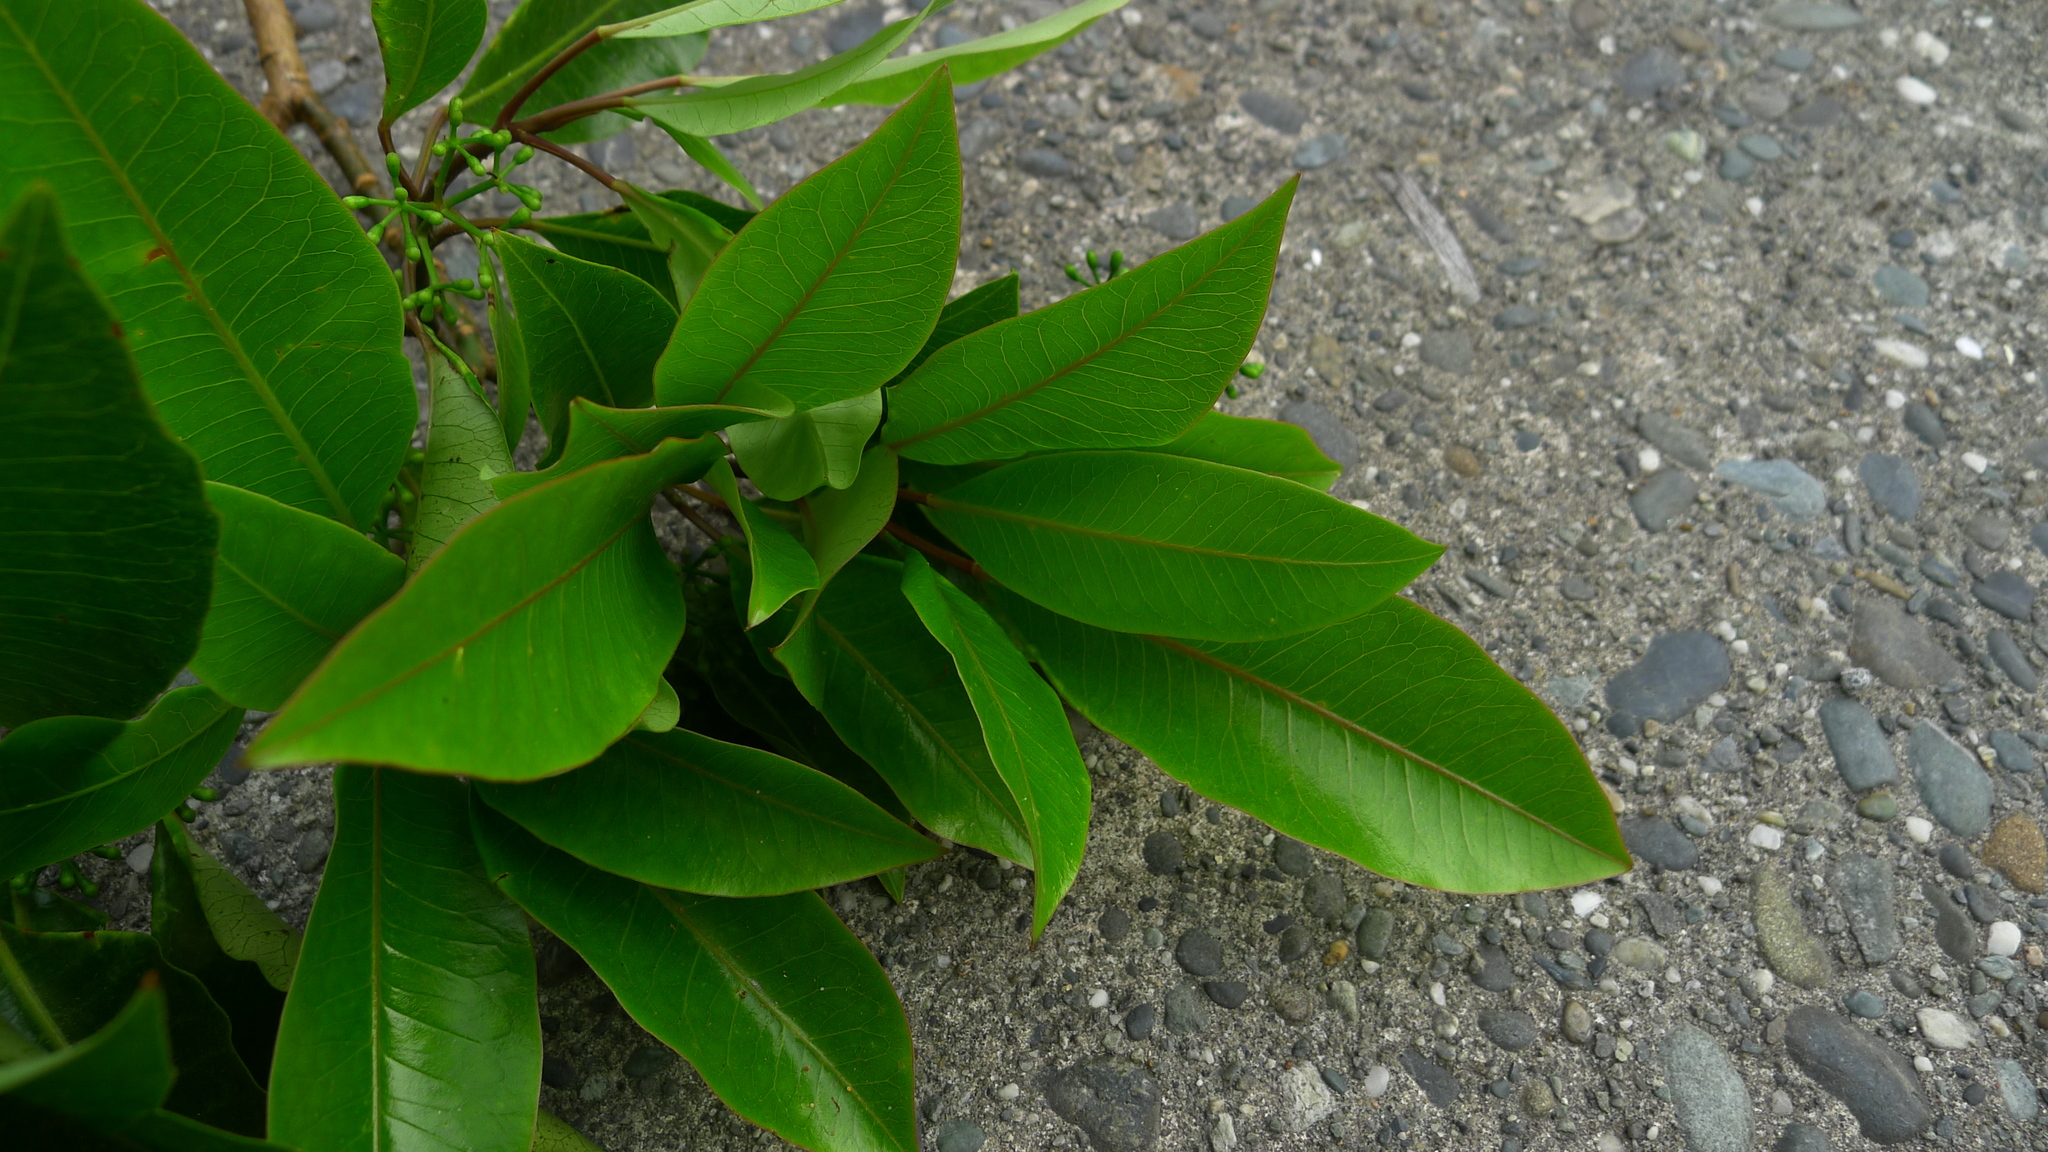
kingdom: Plantae
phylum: Tracheophyta
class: Magnoliopsida
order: Apiales
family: Araliaceae
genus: Raukaua
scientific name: Raukaua edgerleyi
